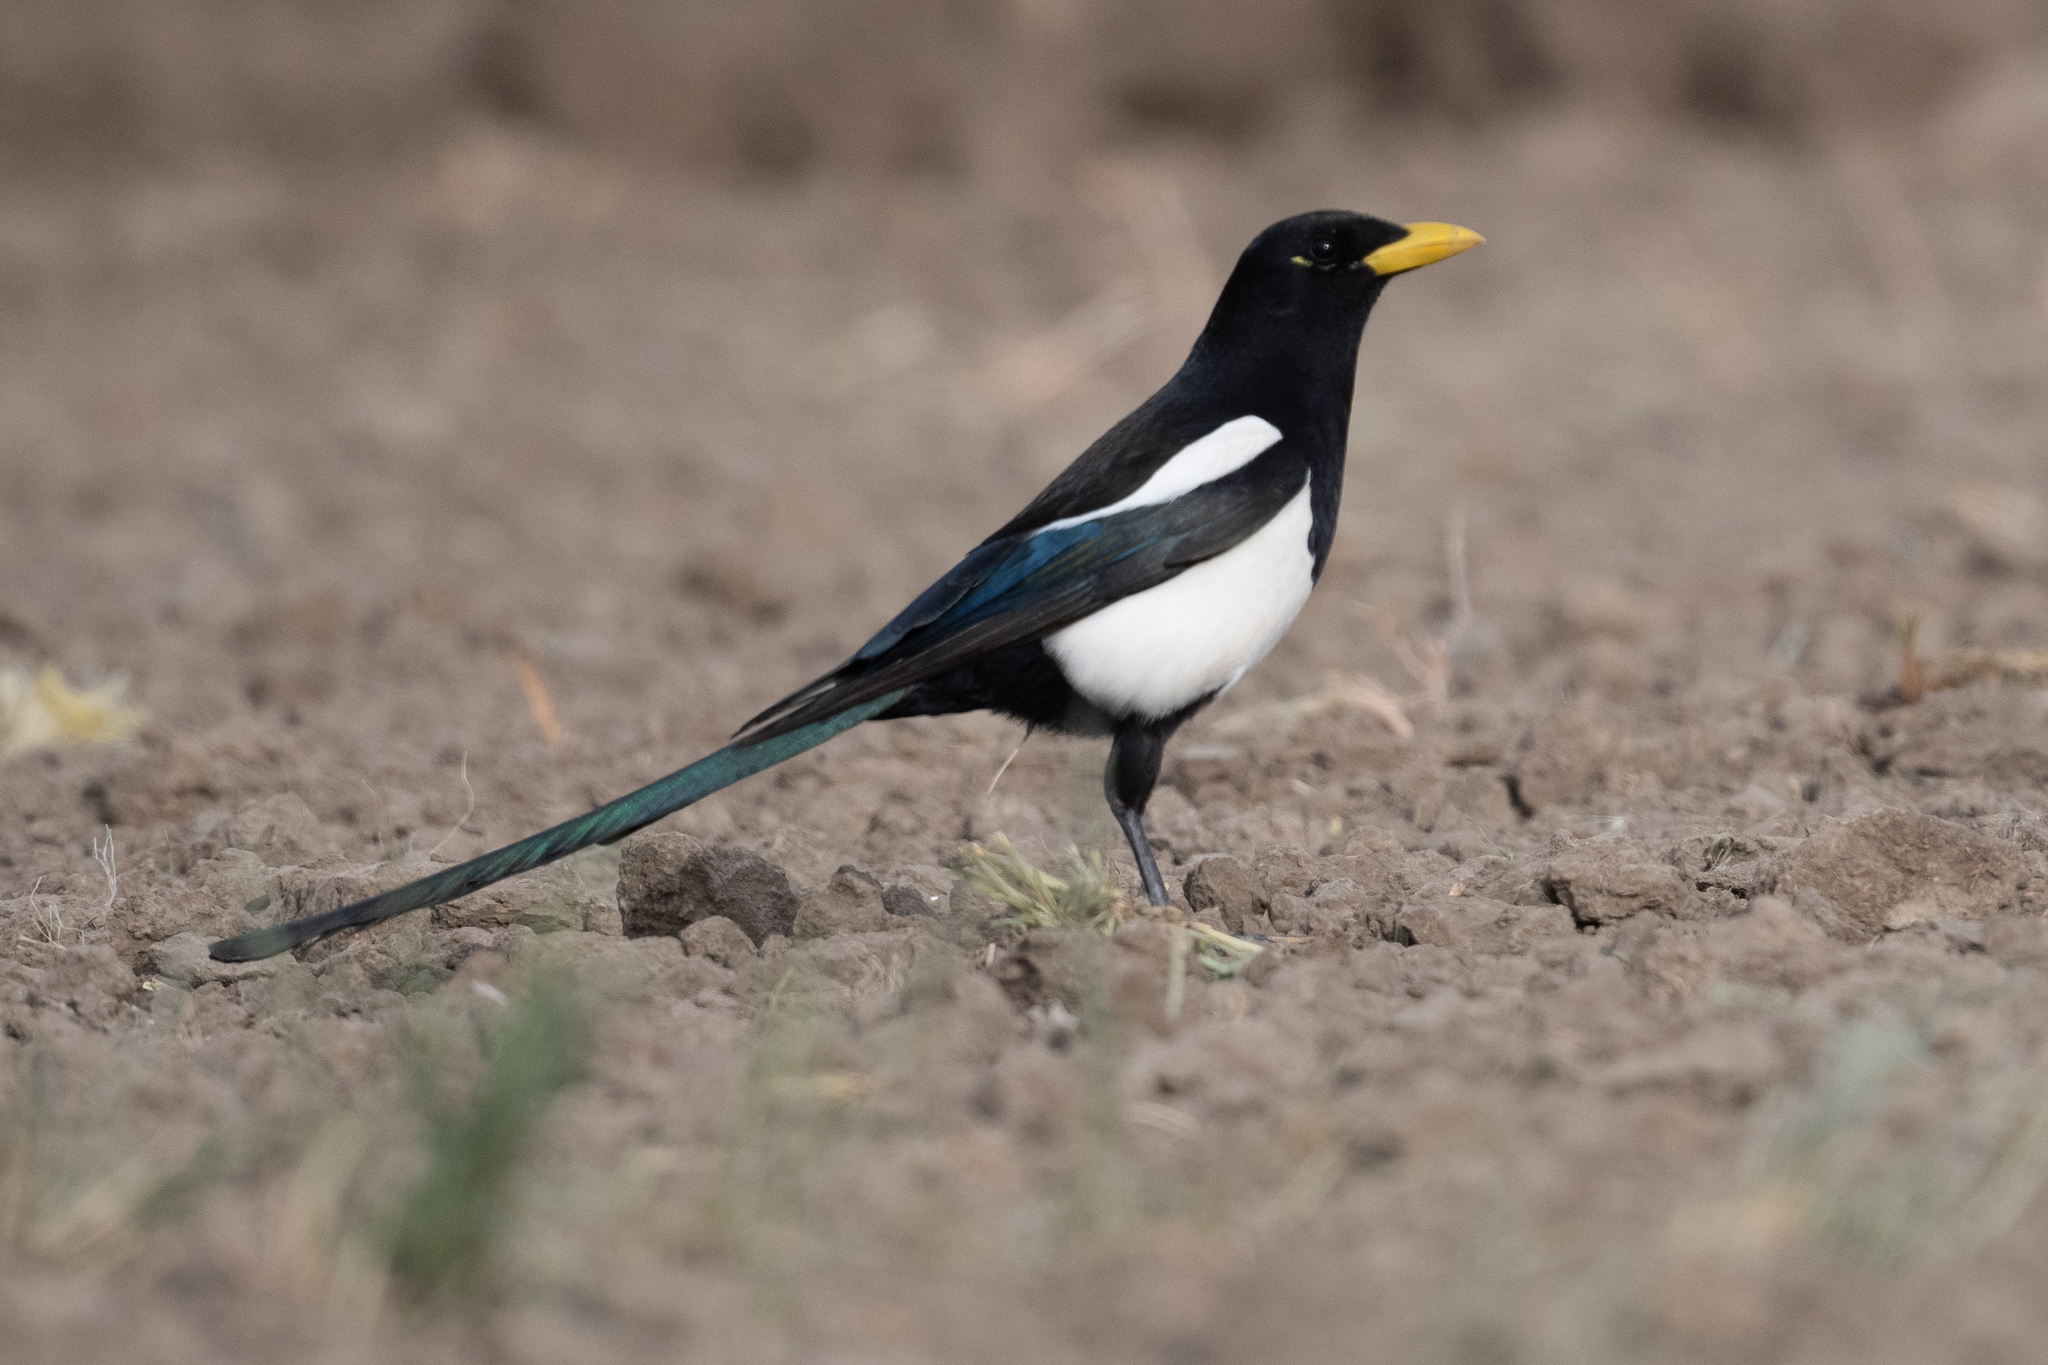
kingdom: Animalia
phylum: Chordata
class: Aves
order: Passeriformes
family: Corvidae
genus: Pica
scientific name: Pica nuttalli
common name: Yellow-billed magpie
